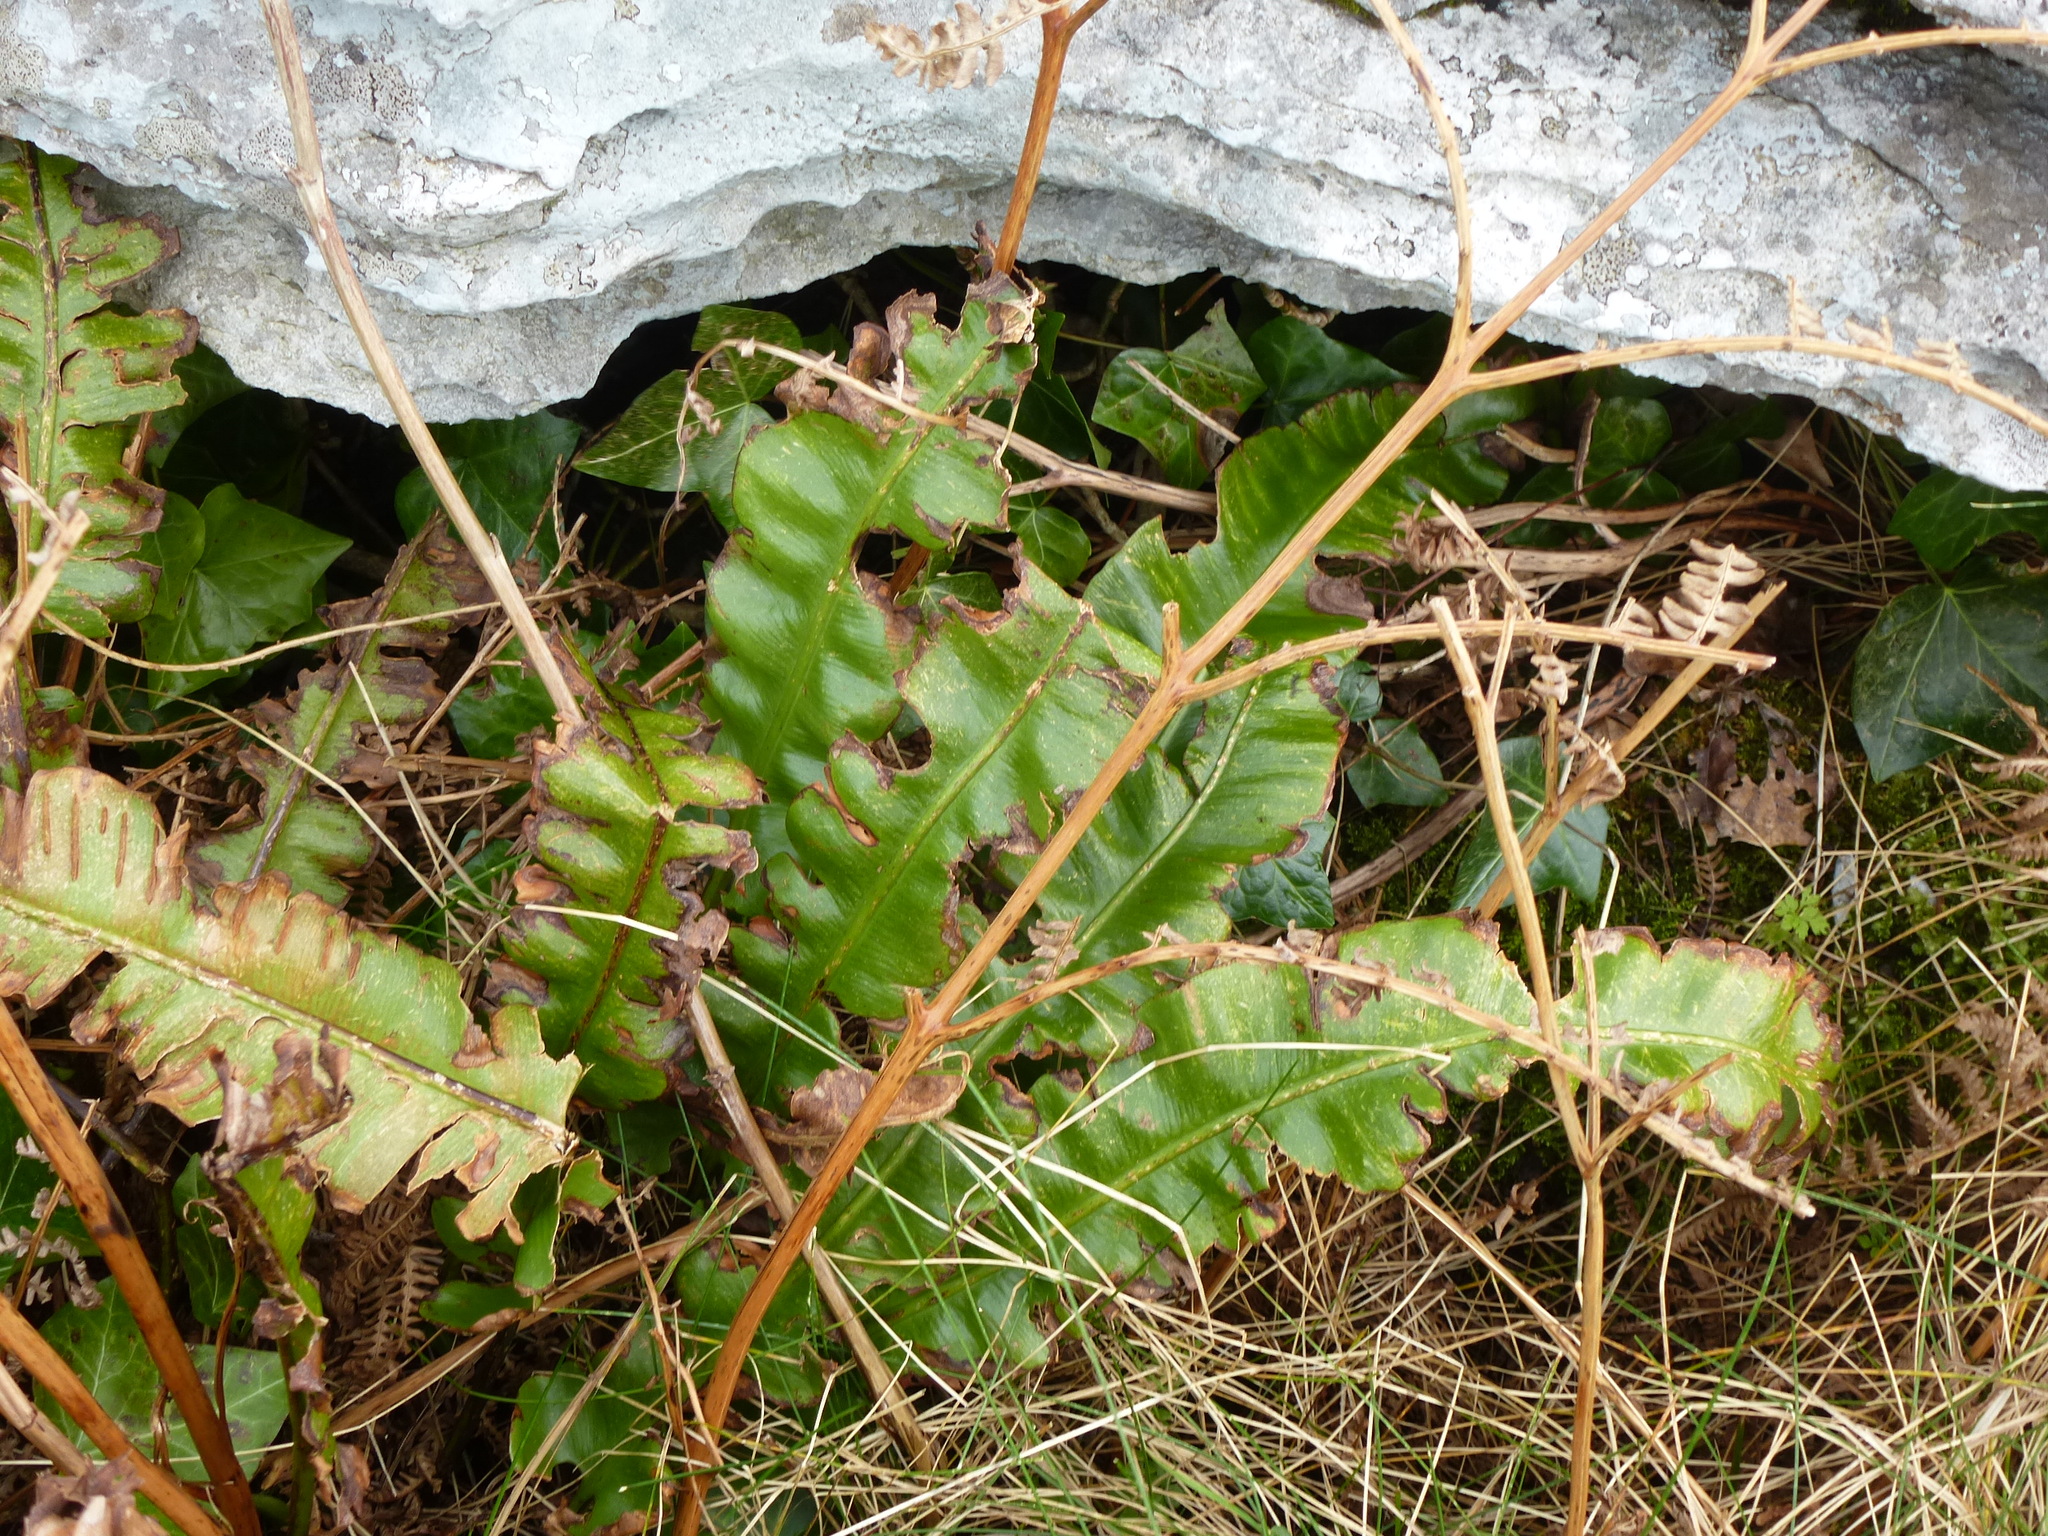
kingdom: Plantae
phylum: Tracheophyta
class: Polypodiopsida
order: Polypodiales
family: Aspleniaceae
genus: Asplenium
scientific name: Asplenium scolopendrium
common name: Hart's-tongue fern
